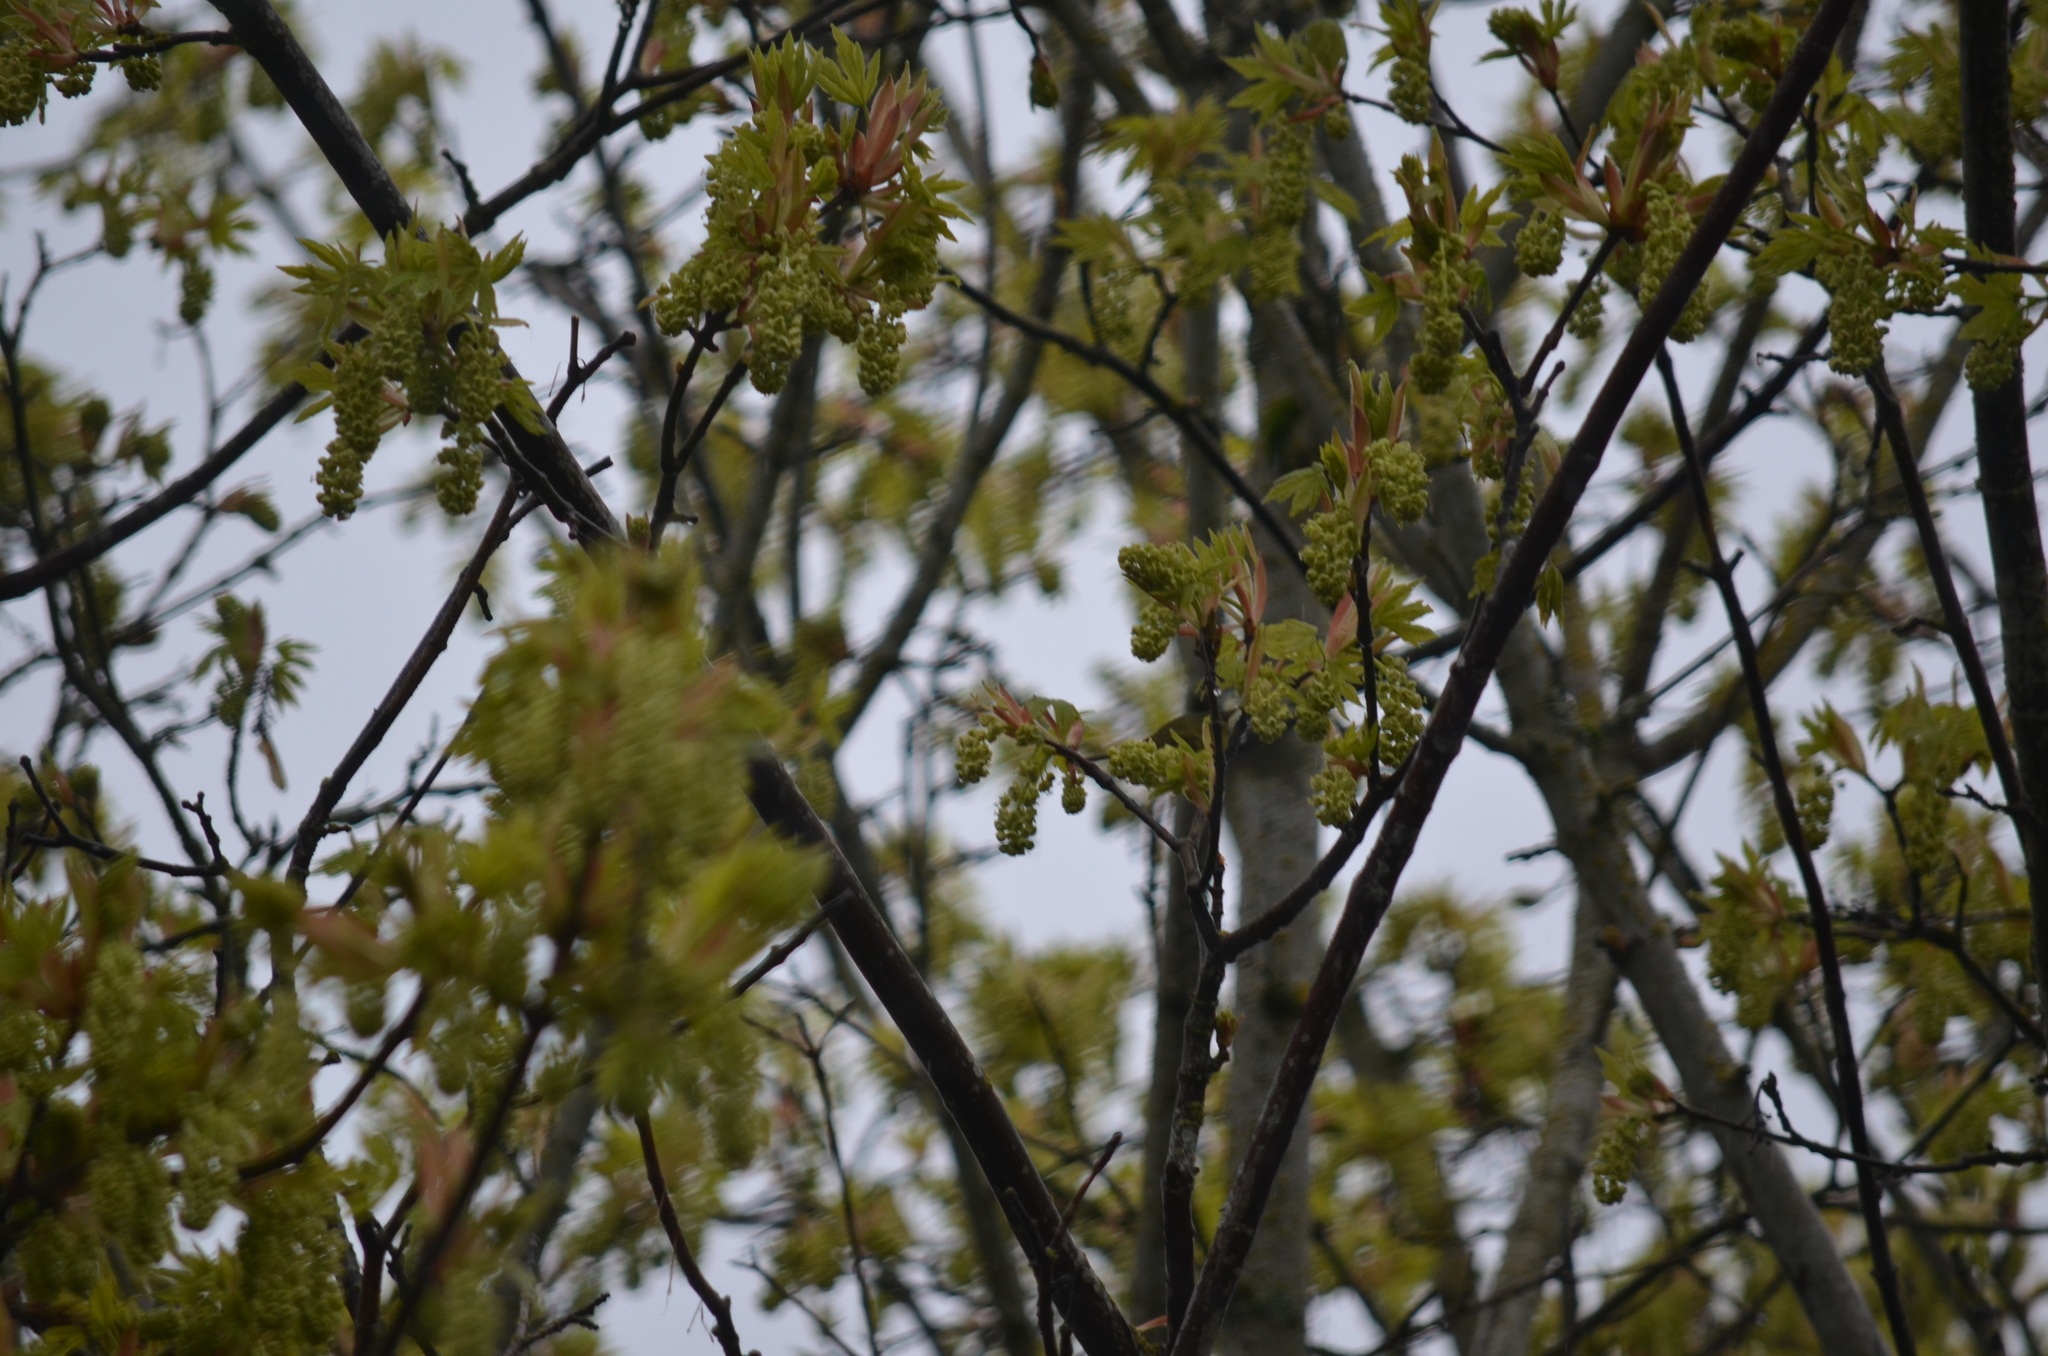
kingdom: Animalia
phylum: Chordata
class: Aves
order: Passeriformes
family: Parulidae
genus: Leiothlypis
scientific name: Leiothlypis celata
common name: Orange-crowned warbler
